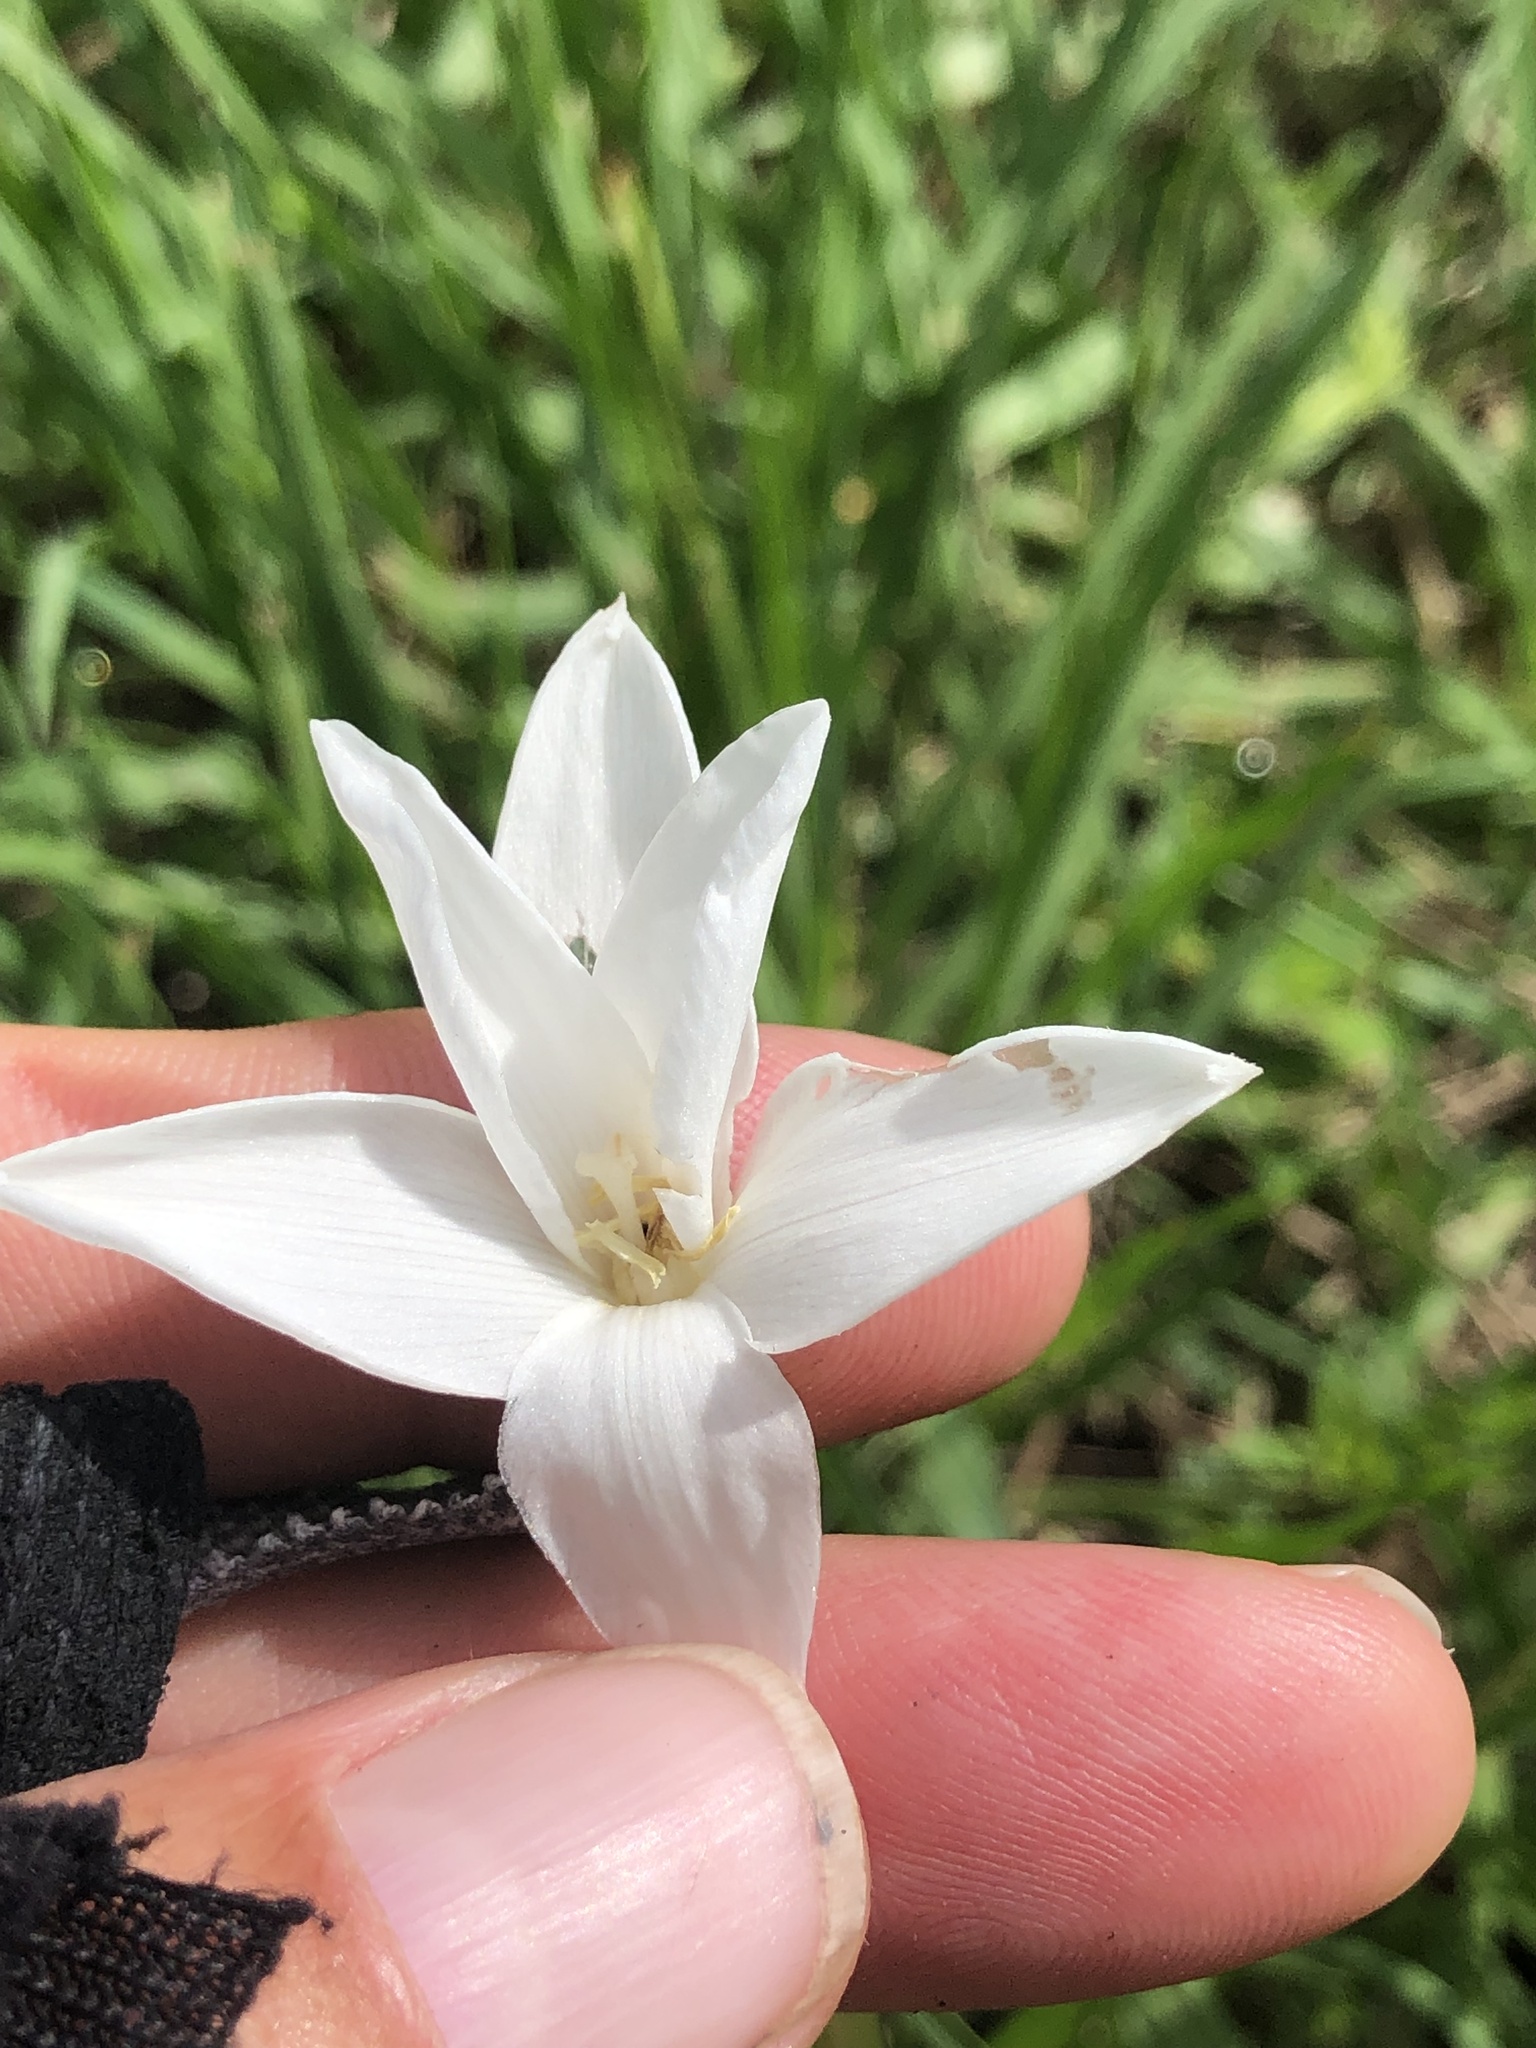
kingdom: Plantae
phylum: Tracheophyta
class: Liliopsida
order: Asparagales
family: Amaryllidaceae
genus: Zephyranthes
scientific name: Zephyranthes traubii
